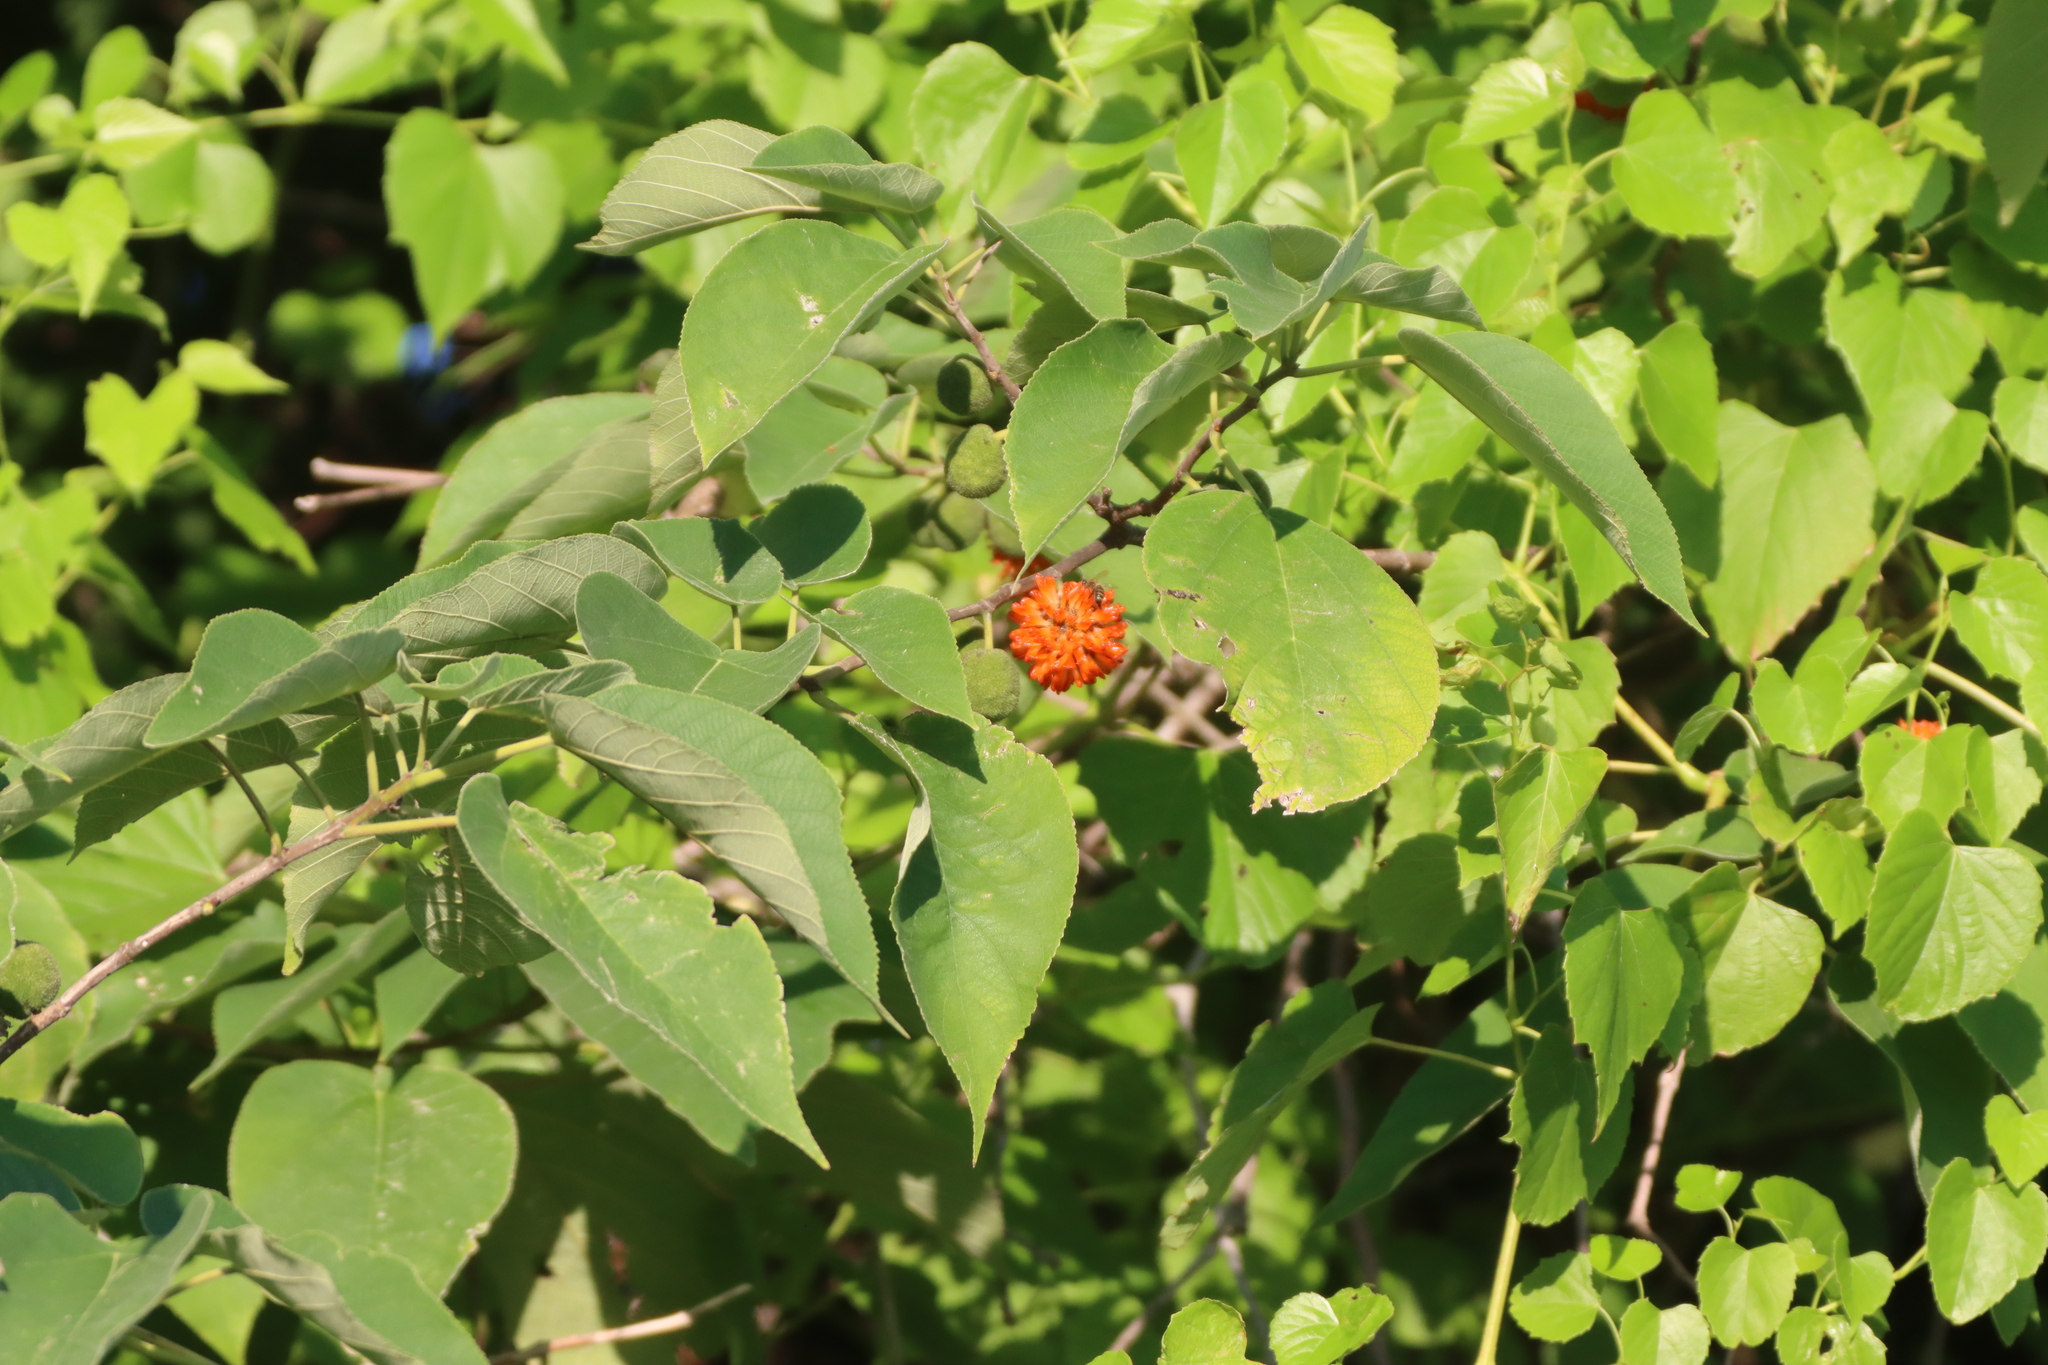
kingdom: Plantae
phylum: Tracheophyta
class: Magnoliopsida
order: Rosales
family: Moraceae
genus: Broussonetia
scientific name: Broussonetia papyrifera
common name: Paper mulberry
